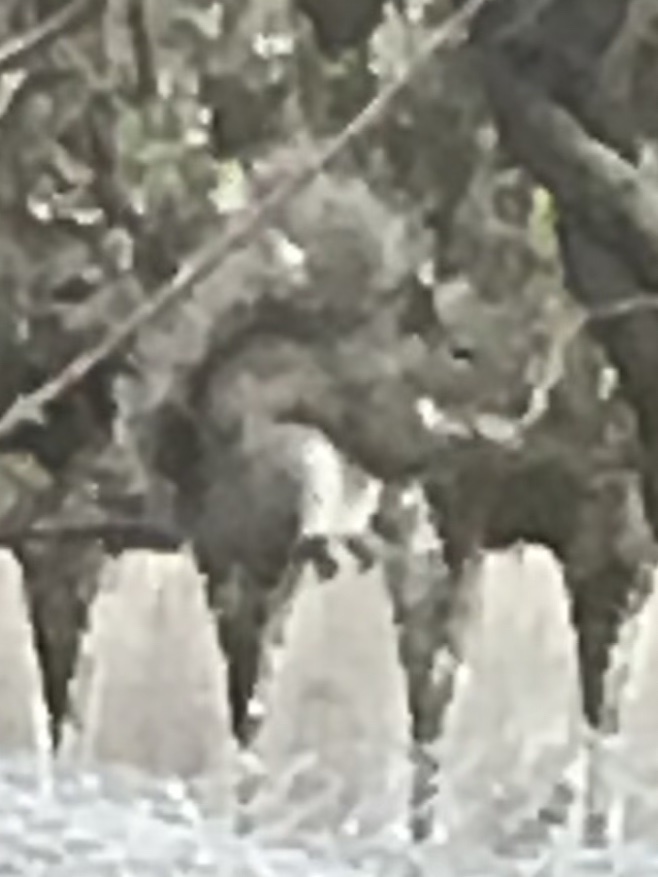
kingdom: Animalia
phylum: Chordata
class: Mammalia
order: Rodentia
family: Sciuridae
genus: Sciurus
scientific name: Sciurus carolinensis
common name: Eastern gray squirrel
